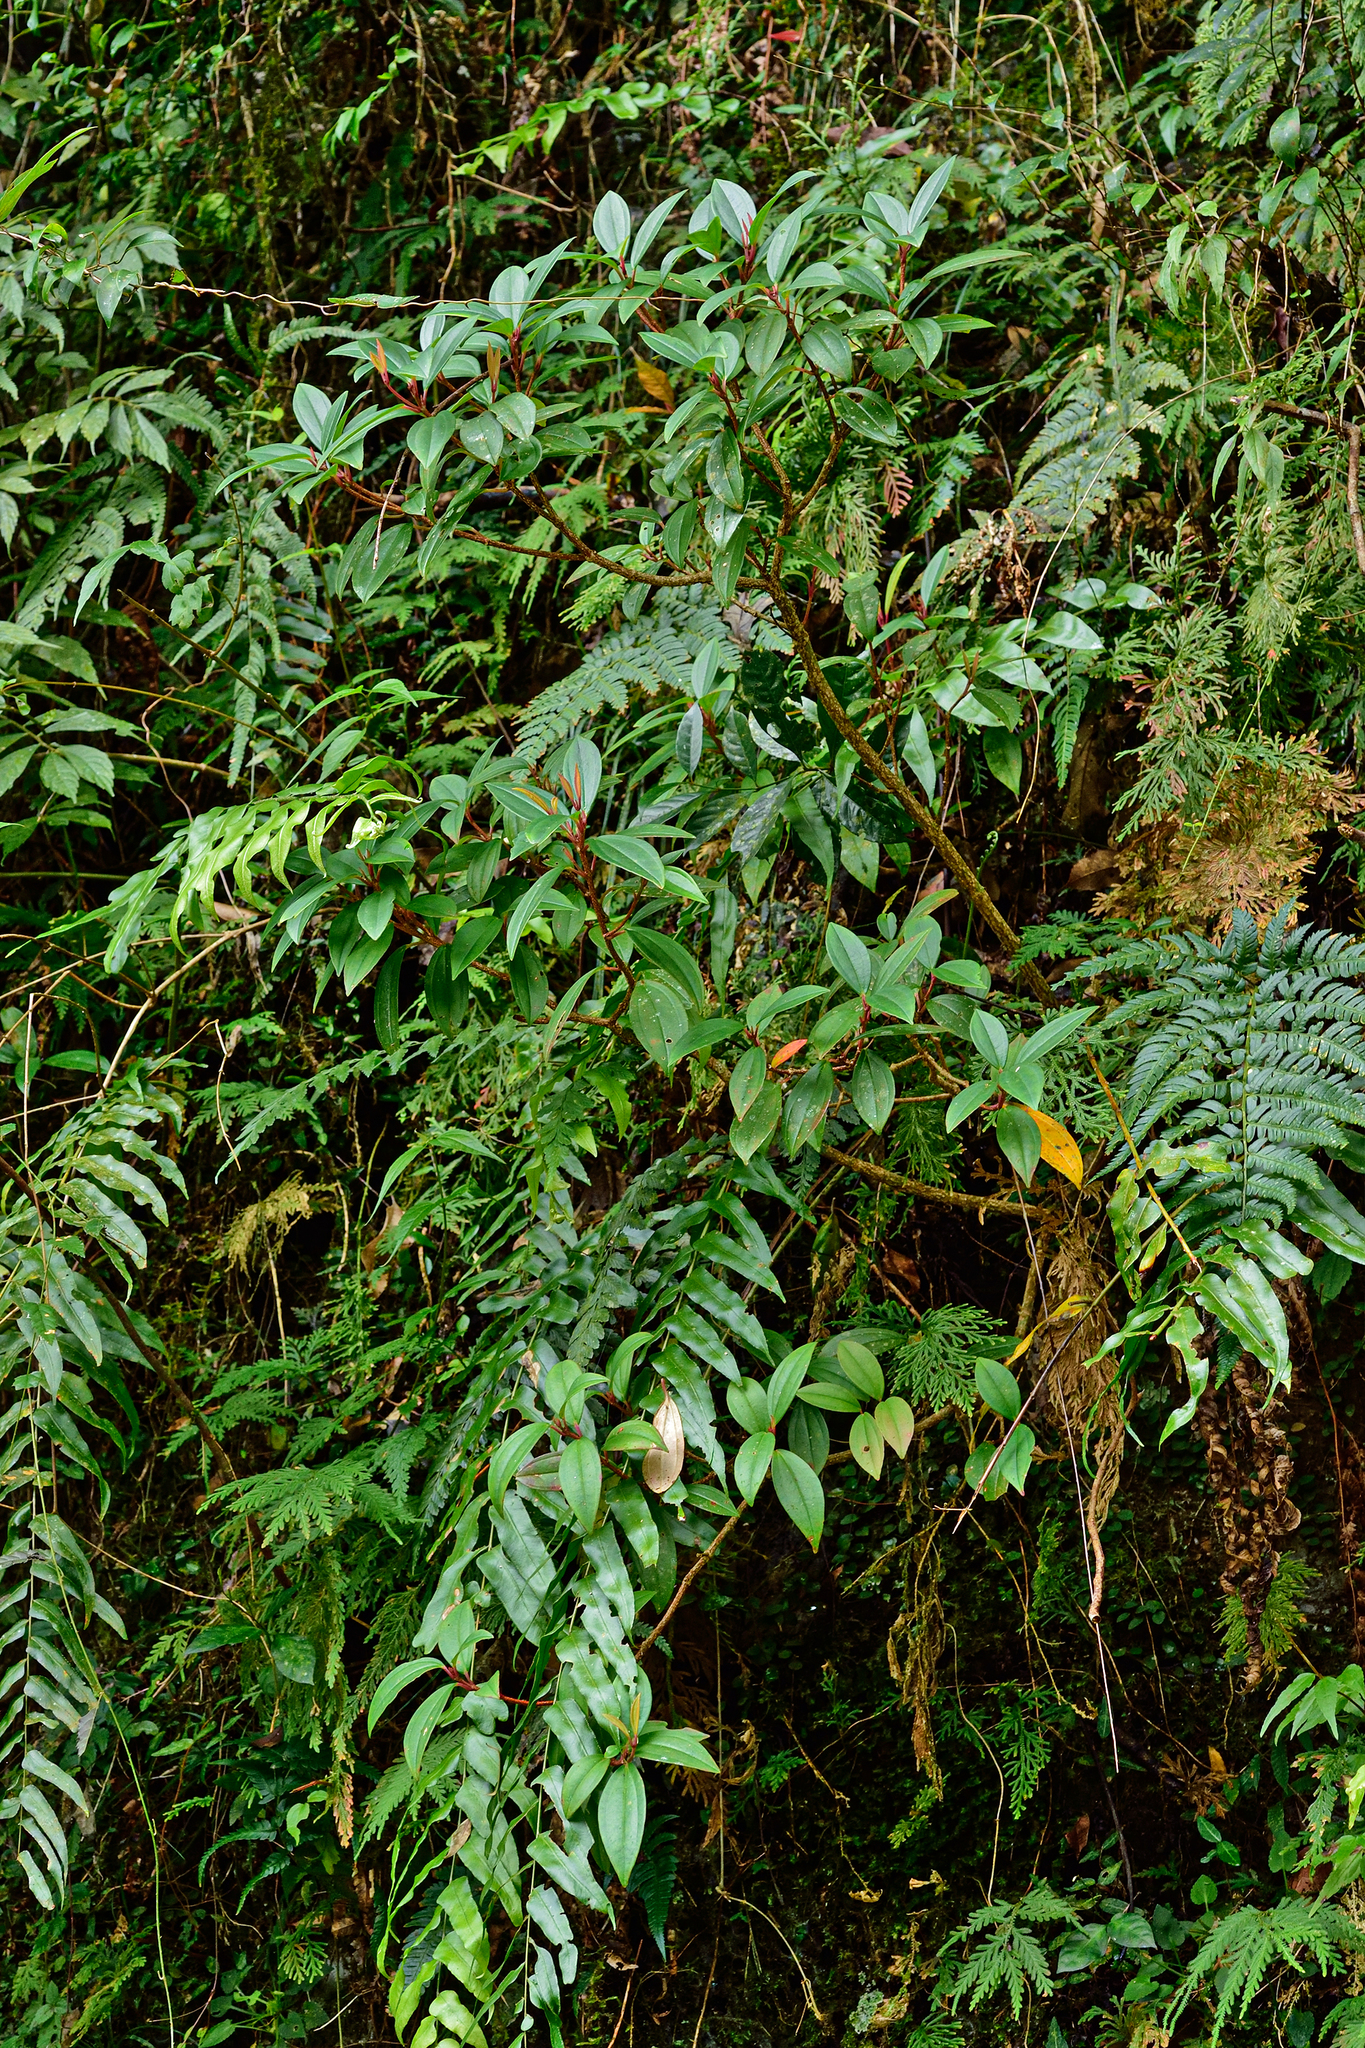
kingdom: Plantae
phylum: Tracheophyta
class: Magnoliopsida
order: Myrtales
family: Melastomataceae
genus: Medinilla
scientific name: Medinilla fengii
